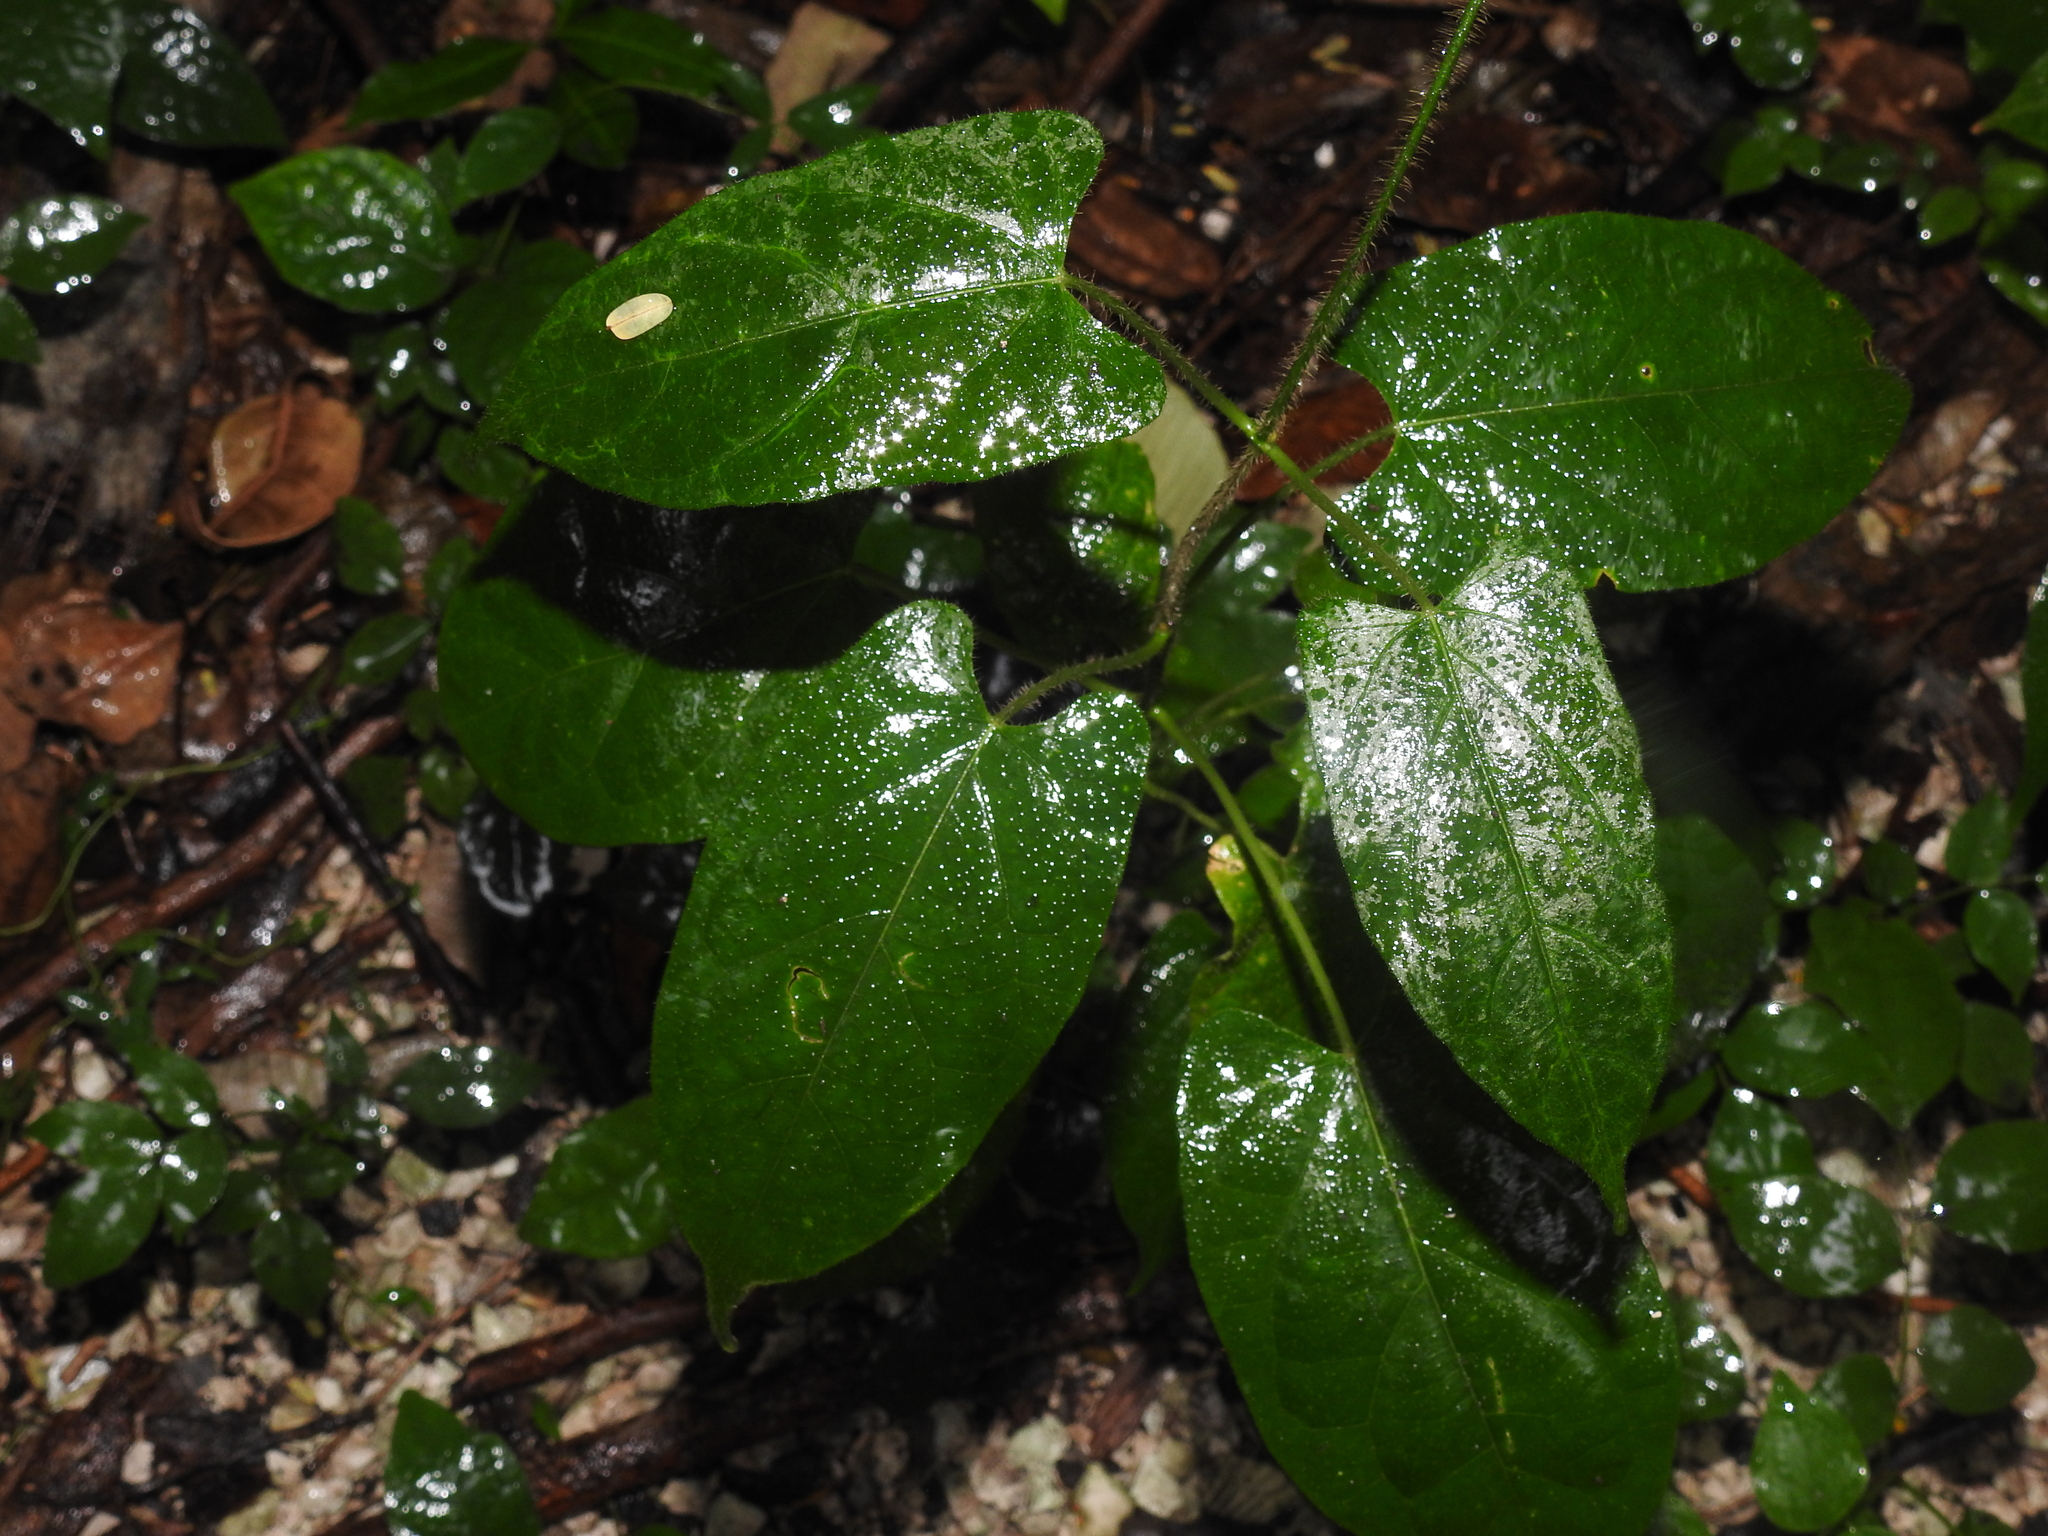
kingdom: Plantae
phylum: Tracheophyta
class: Magnoliopsida
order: Gentianales
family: Apocynaceae
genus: Gonolobus
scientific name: Gonolobus taylorianus
